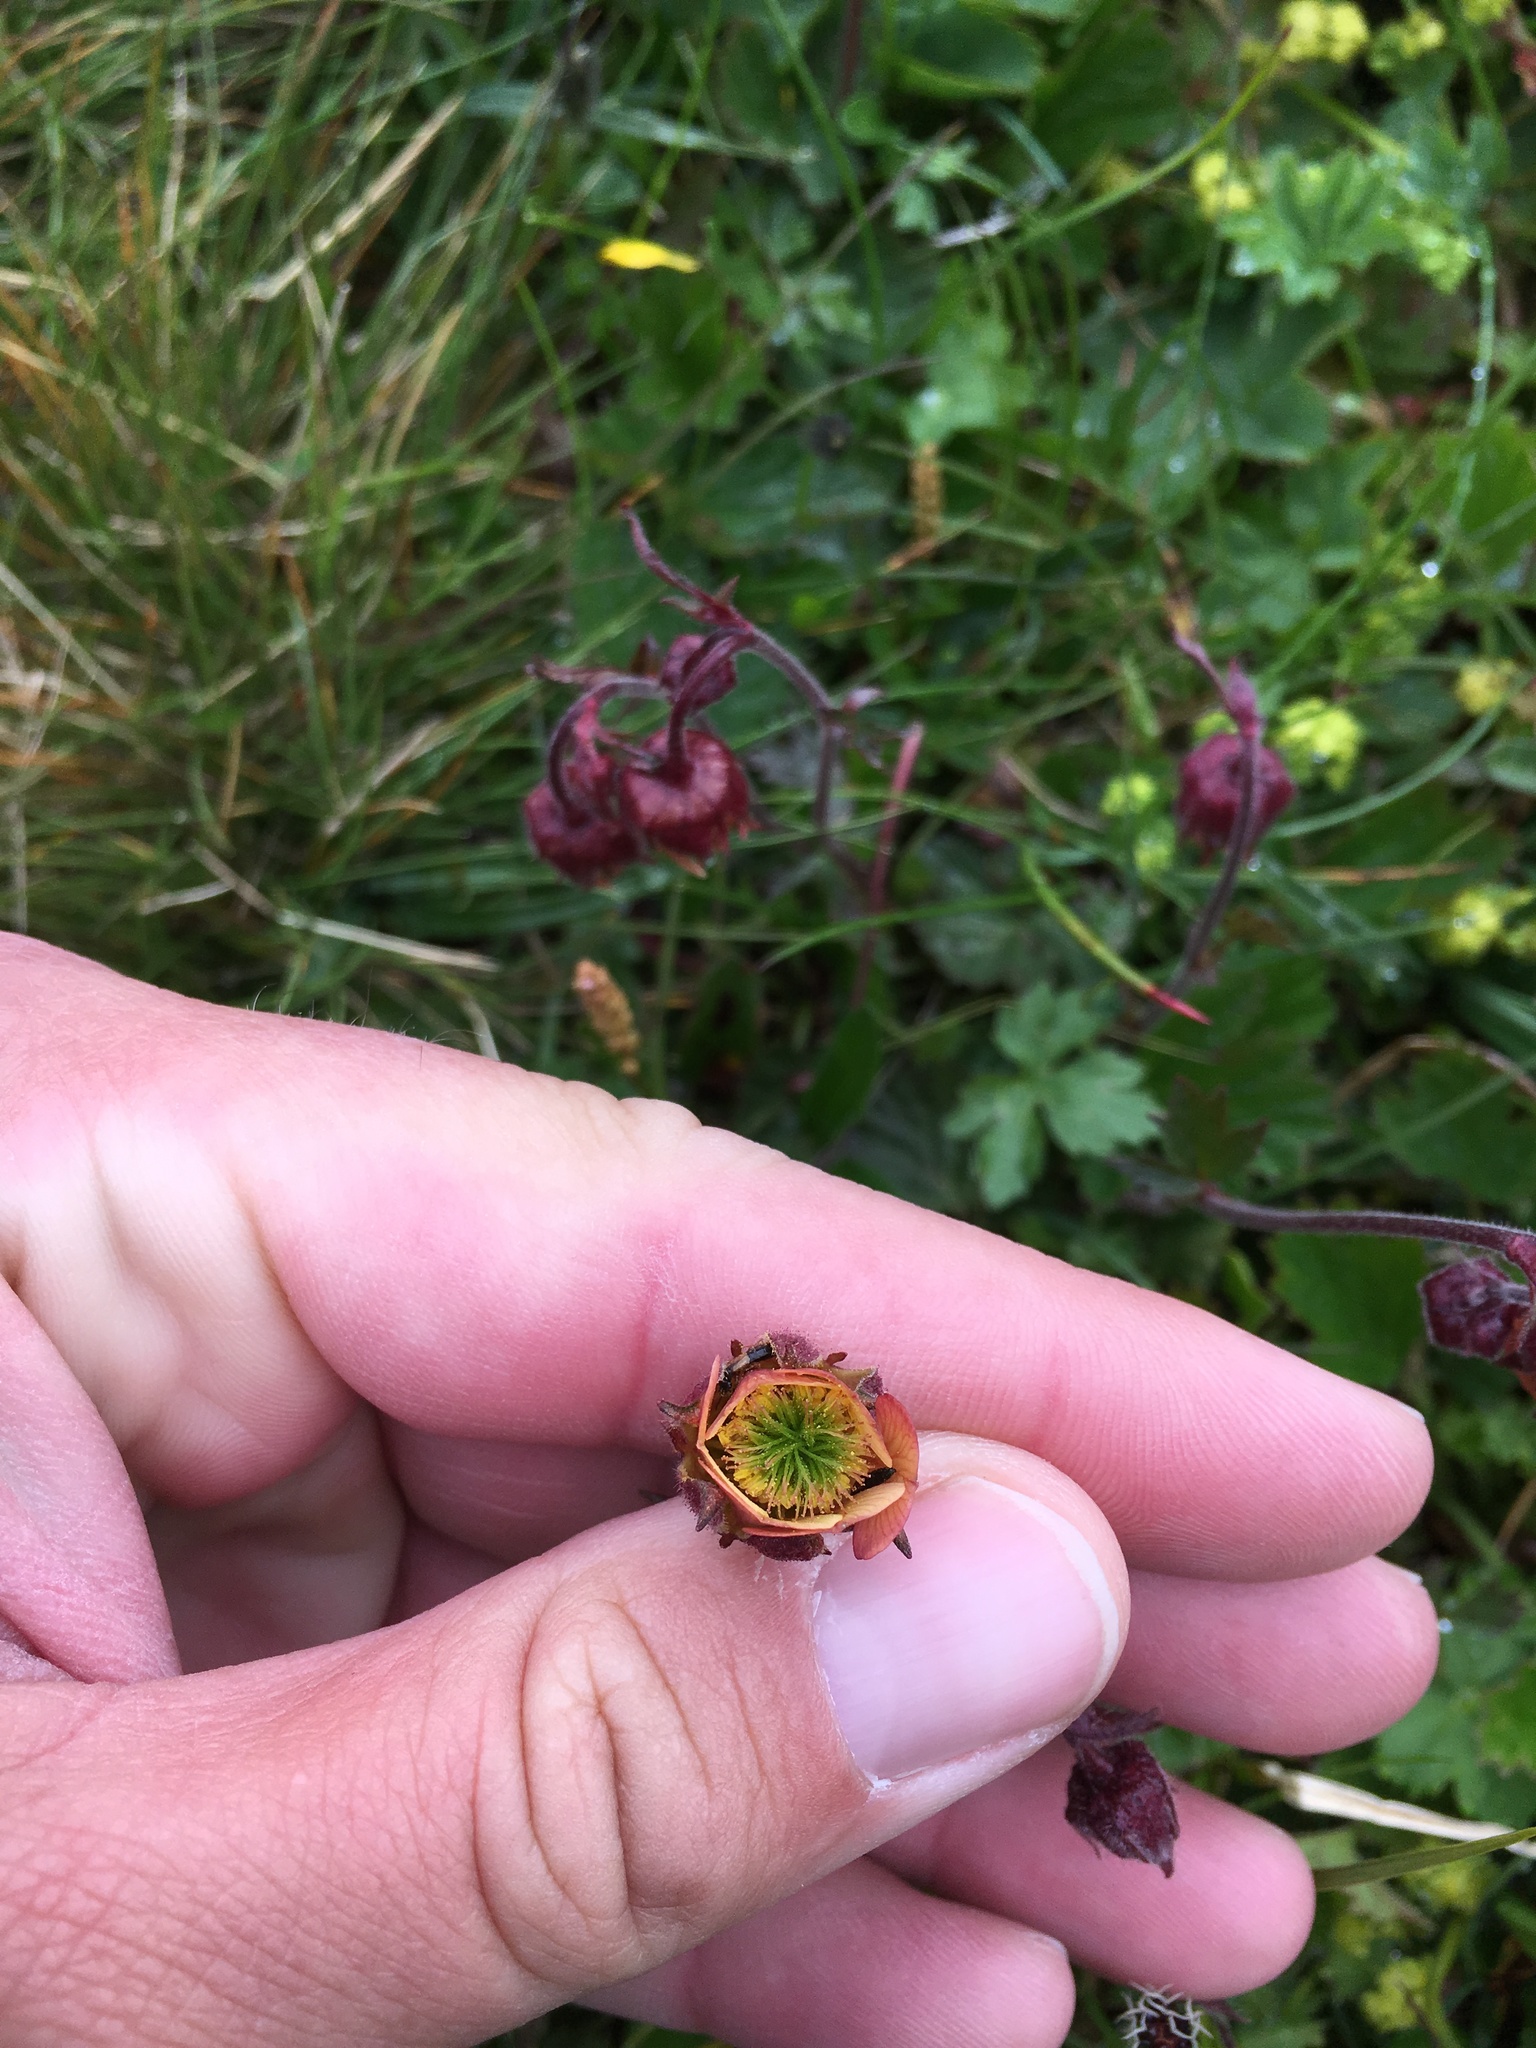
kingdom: Plantae
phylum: Tracheophyta
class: Magnoliopsida
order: Rosales
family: Rosaceae
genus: Geum
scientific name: Geum rivale
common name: Water avens
